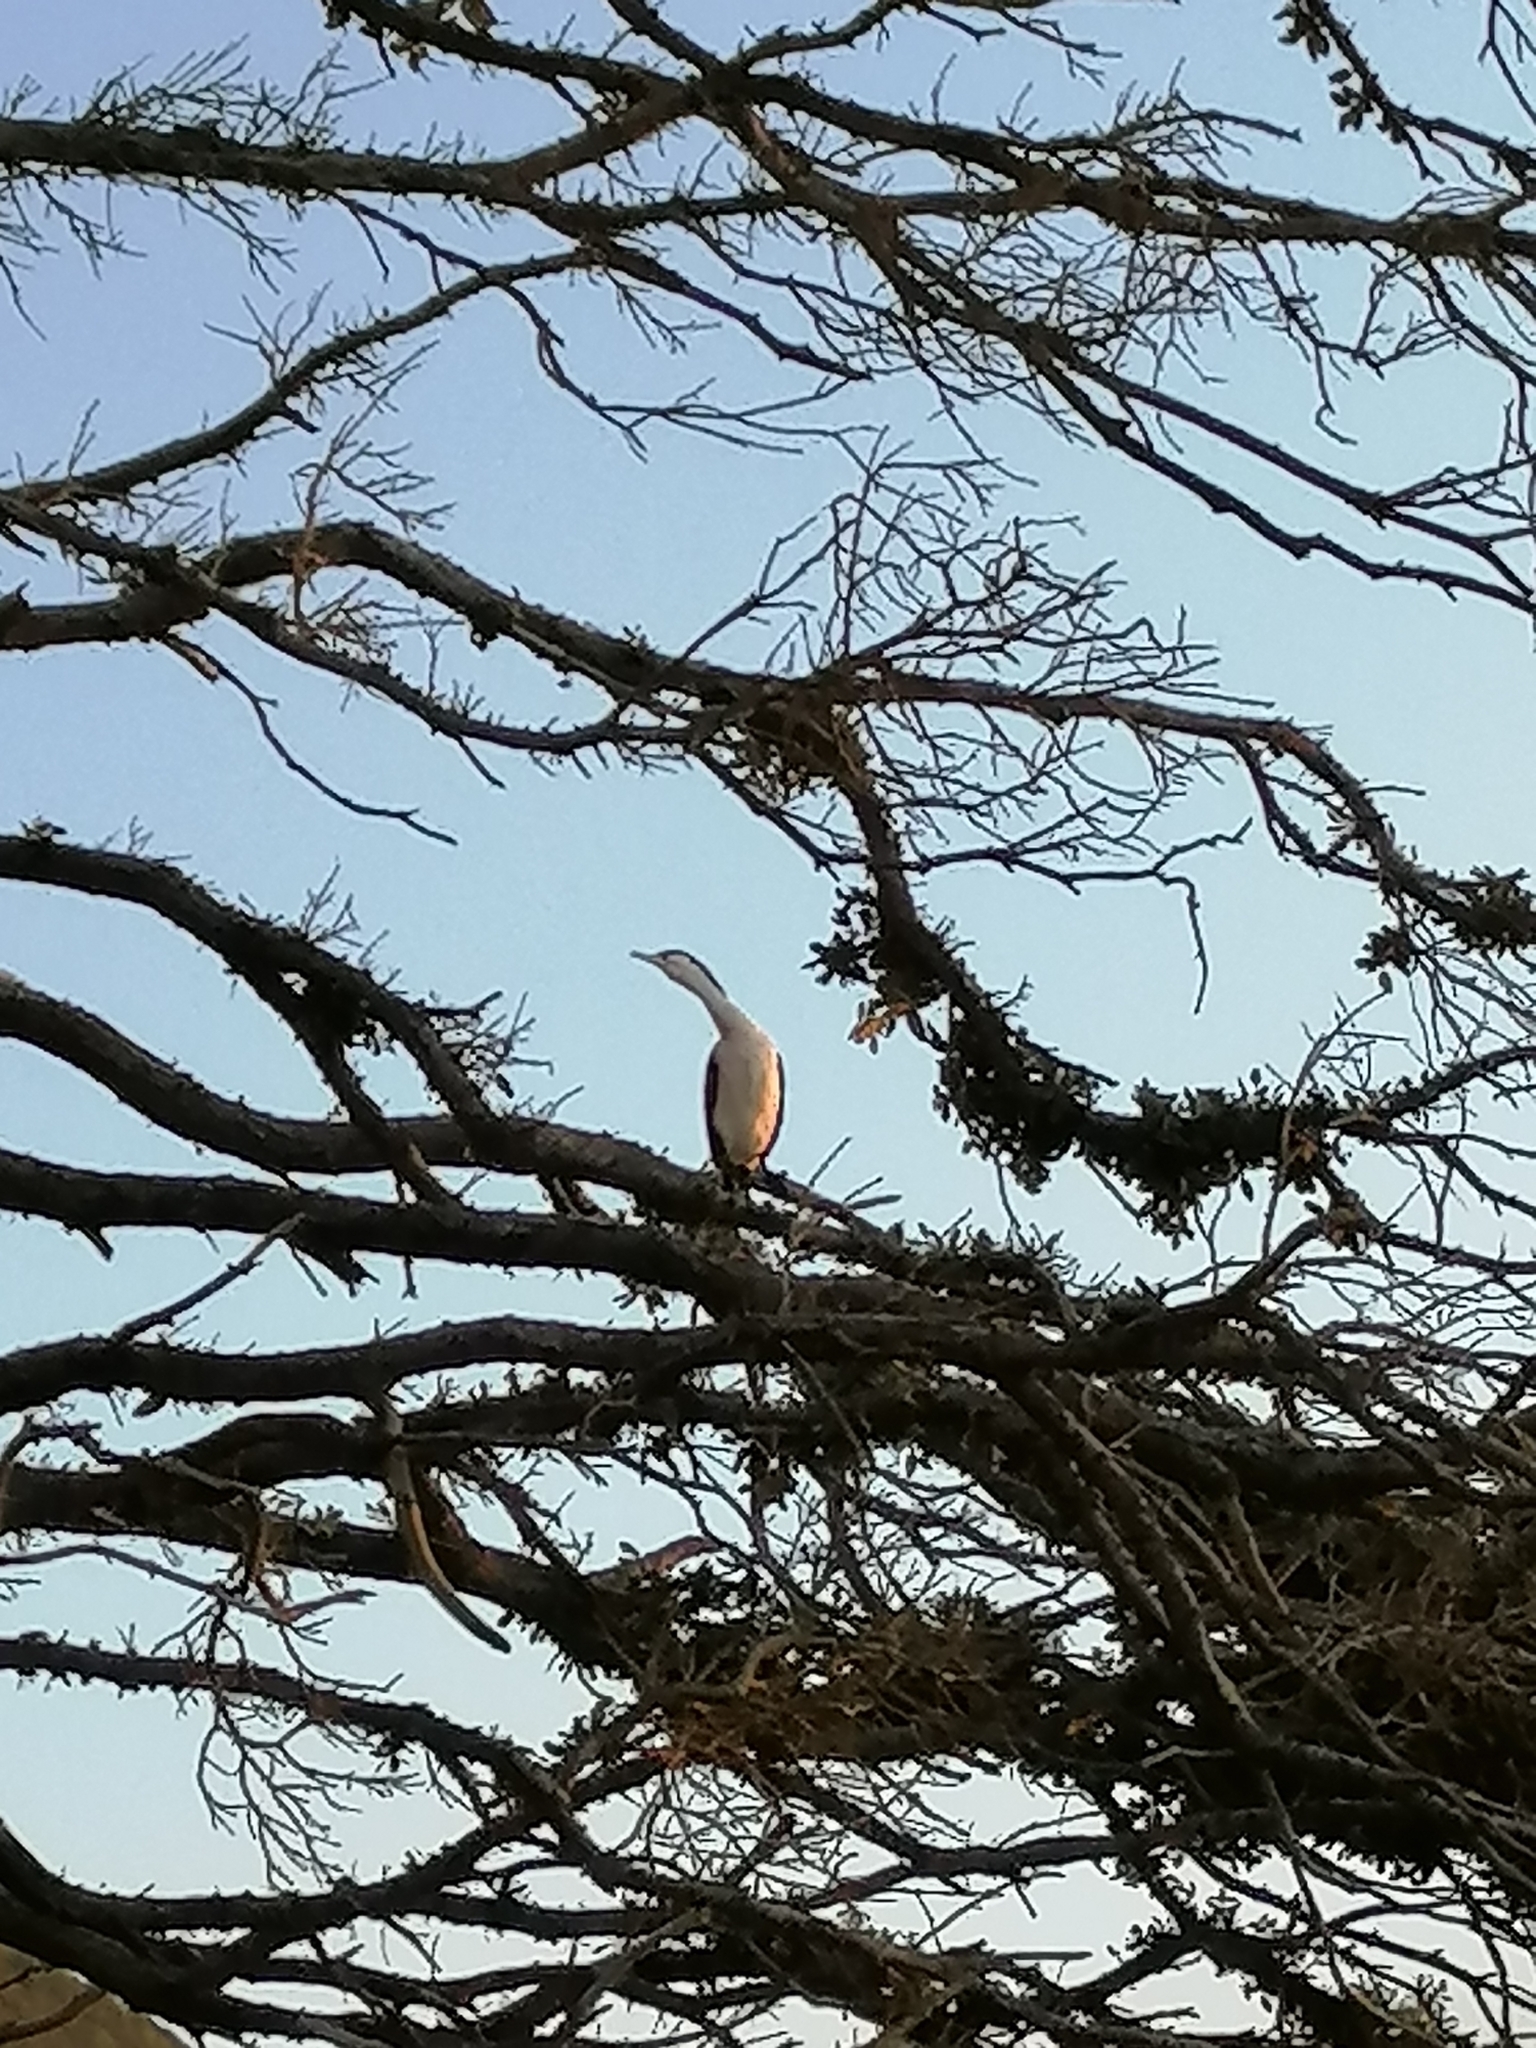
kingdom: Animalia
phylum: Chordata
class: Aves
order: Suliformes
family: Phalacrocoracidae
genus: Phalacrocorax
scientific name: Phalacrocorax varius
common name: Pied cormorant
